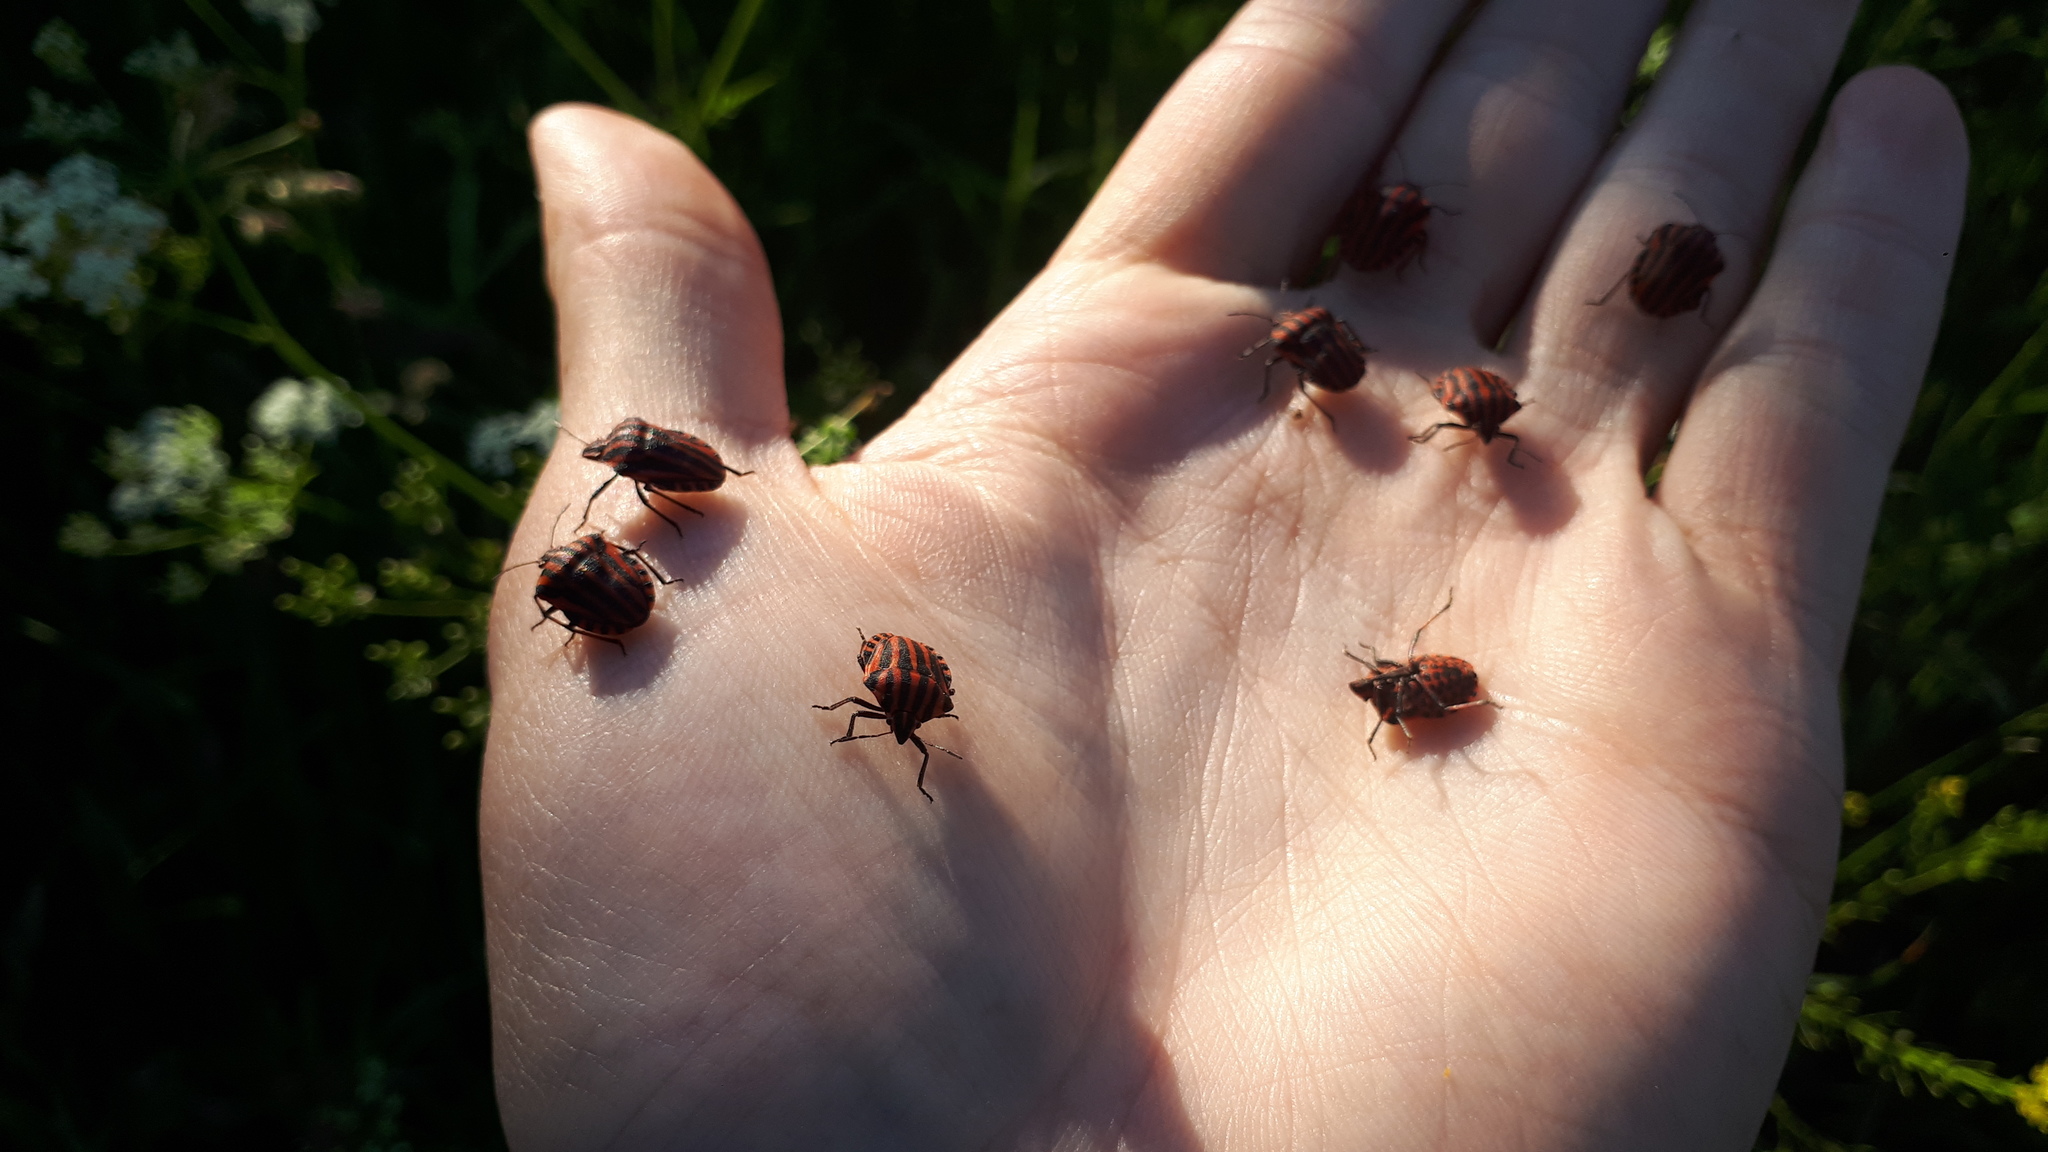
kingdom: Animalia
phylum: Arthropoda
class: Insecta
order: Hemiptera
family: Pentatomidae
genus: Graphosoma
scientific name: Graphosoma italicum
